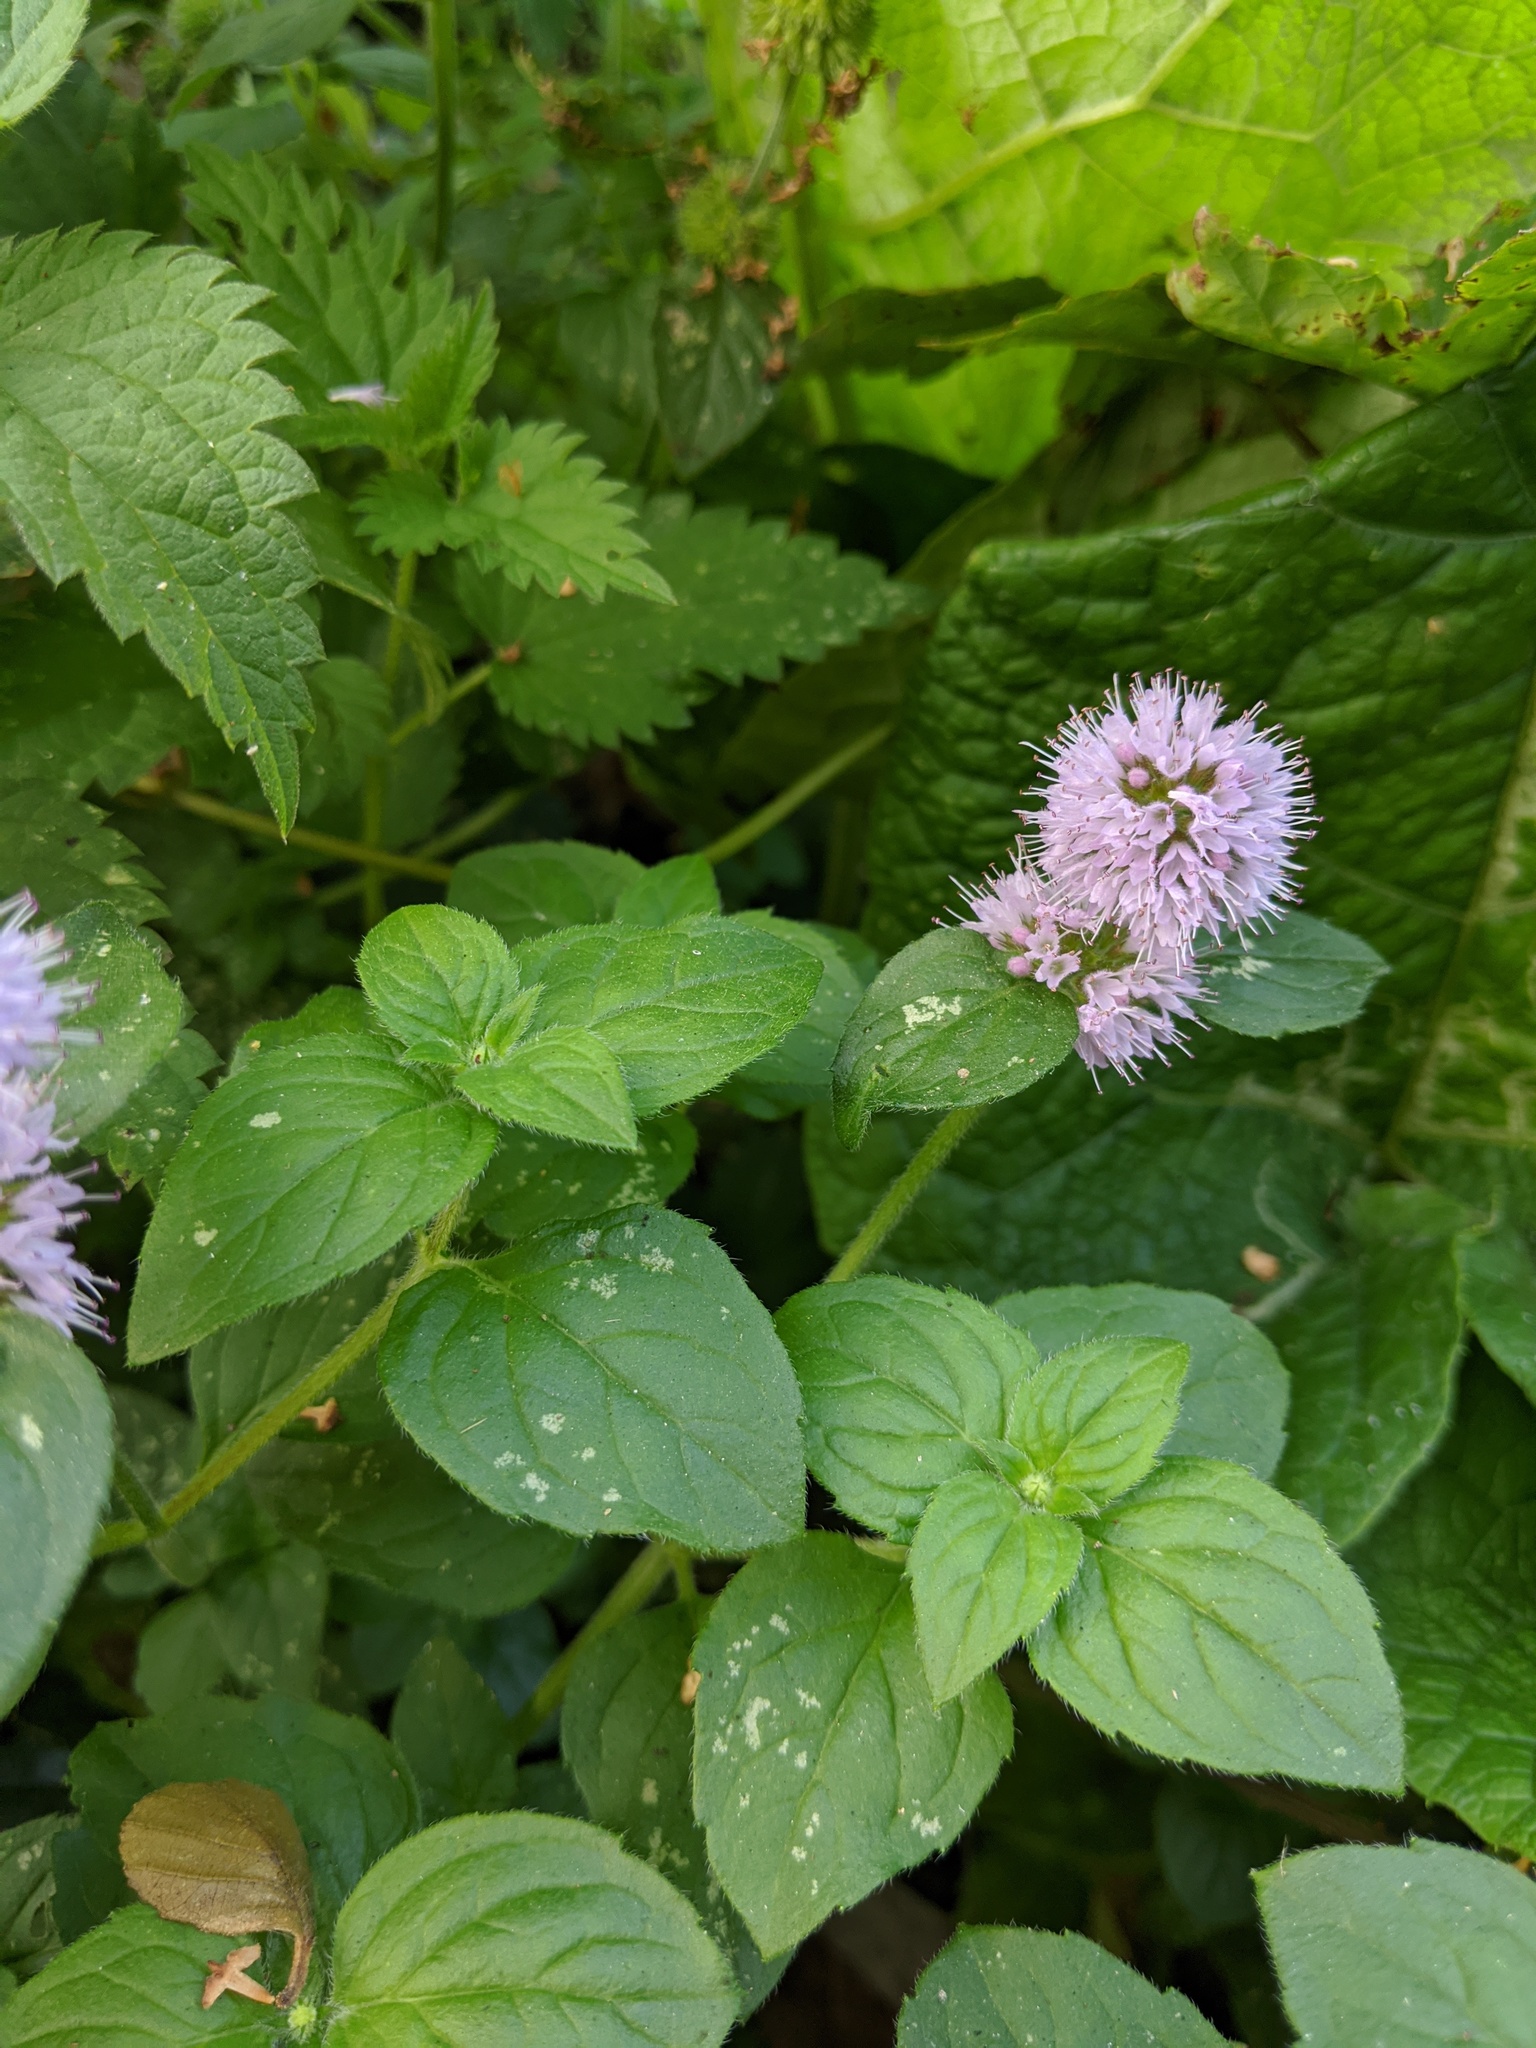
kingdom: Plantae
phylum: Tracheophyta
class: Magnoliopsida
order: Lamiales
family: Lamiaceae
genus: Mentha
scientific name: Mentha aquatica
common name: Water mint
